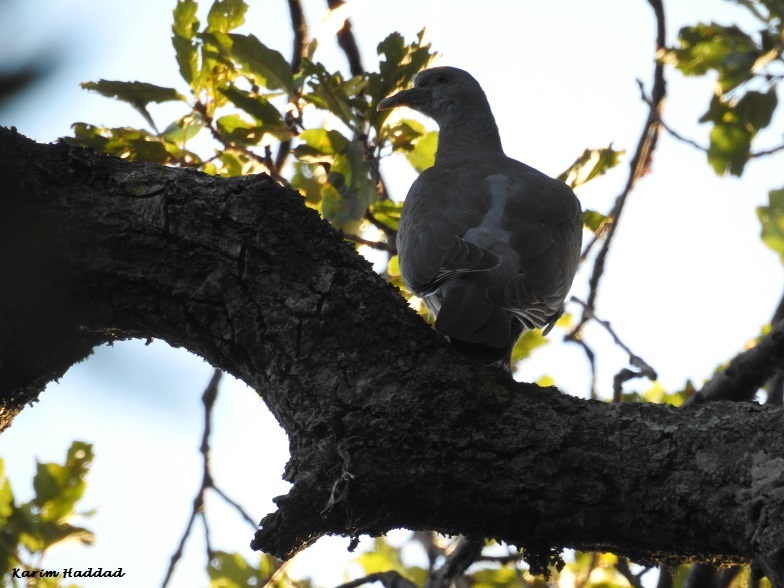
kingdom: Animalia
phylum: Chordata
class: Aves
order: Columbiformes
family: Columbidae
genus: Columba
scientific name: Columba palumbus
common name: Common wood pigeon
